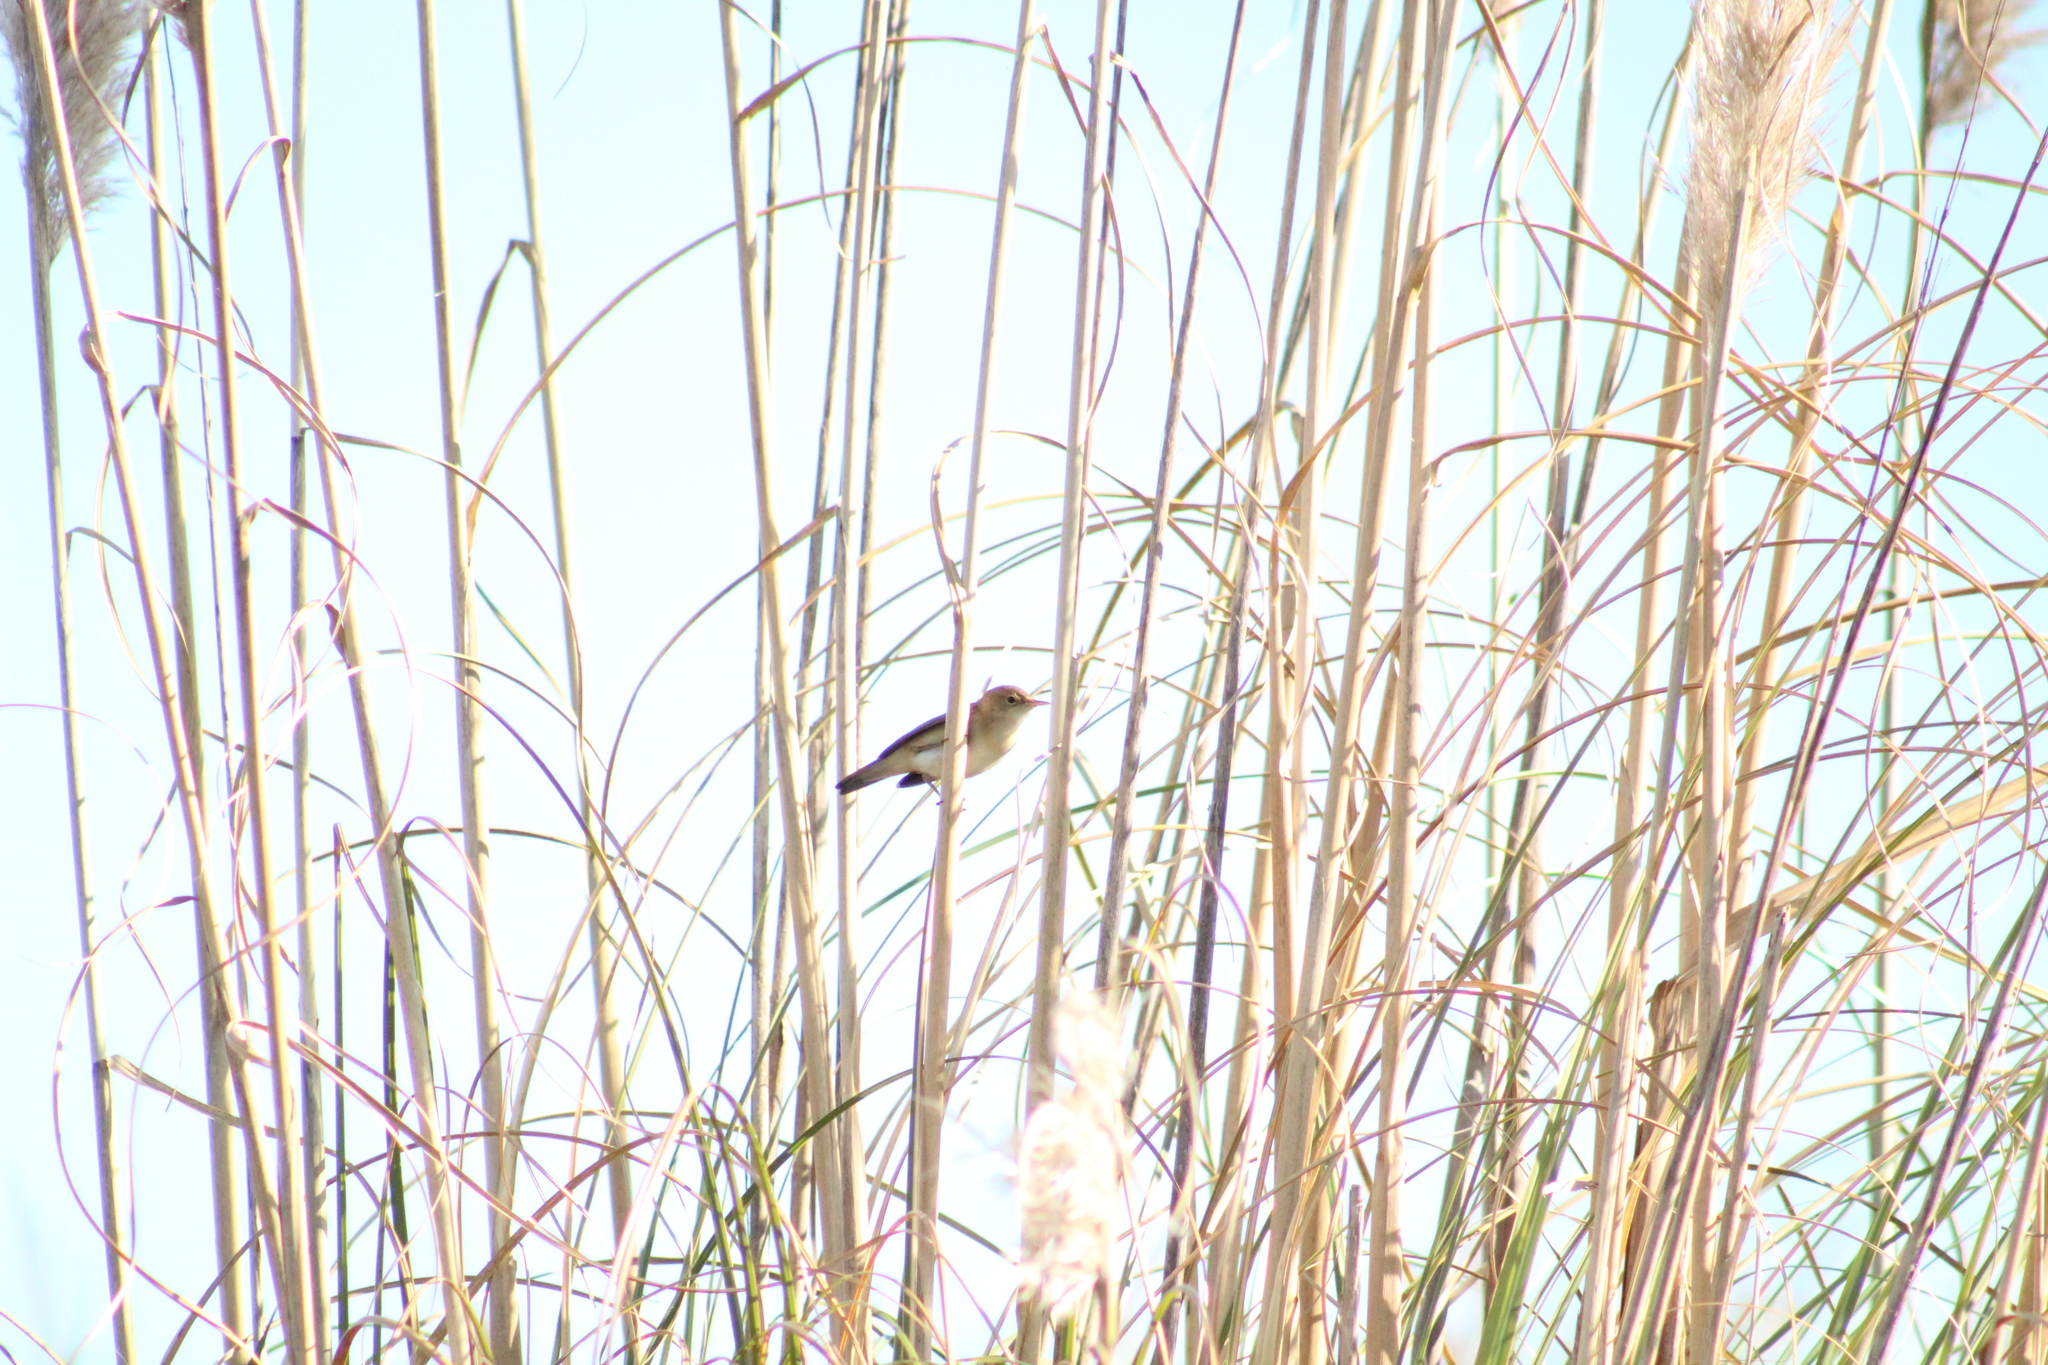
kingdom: Animalia
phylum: Chordata
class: Aves
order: Passeriformes
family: Acrocephalidae
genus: Acrocephalus
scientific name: Acrocephalus
